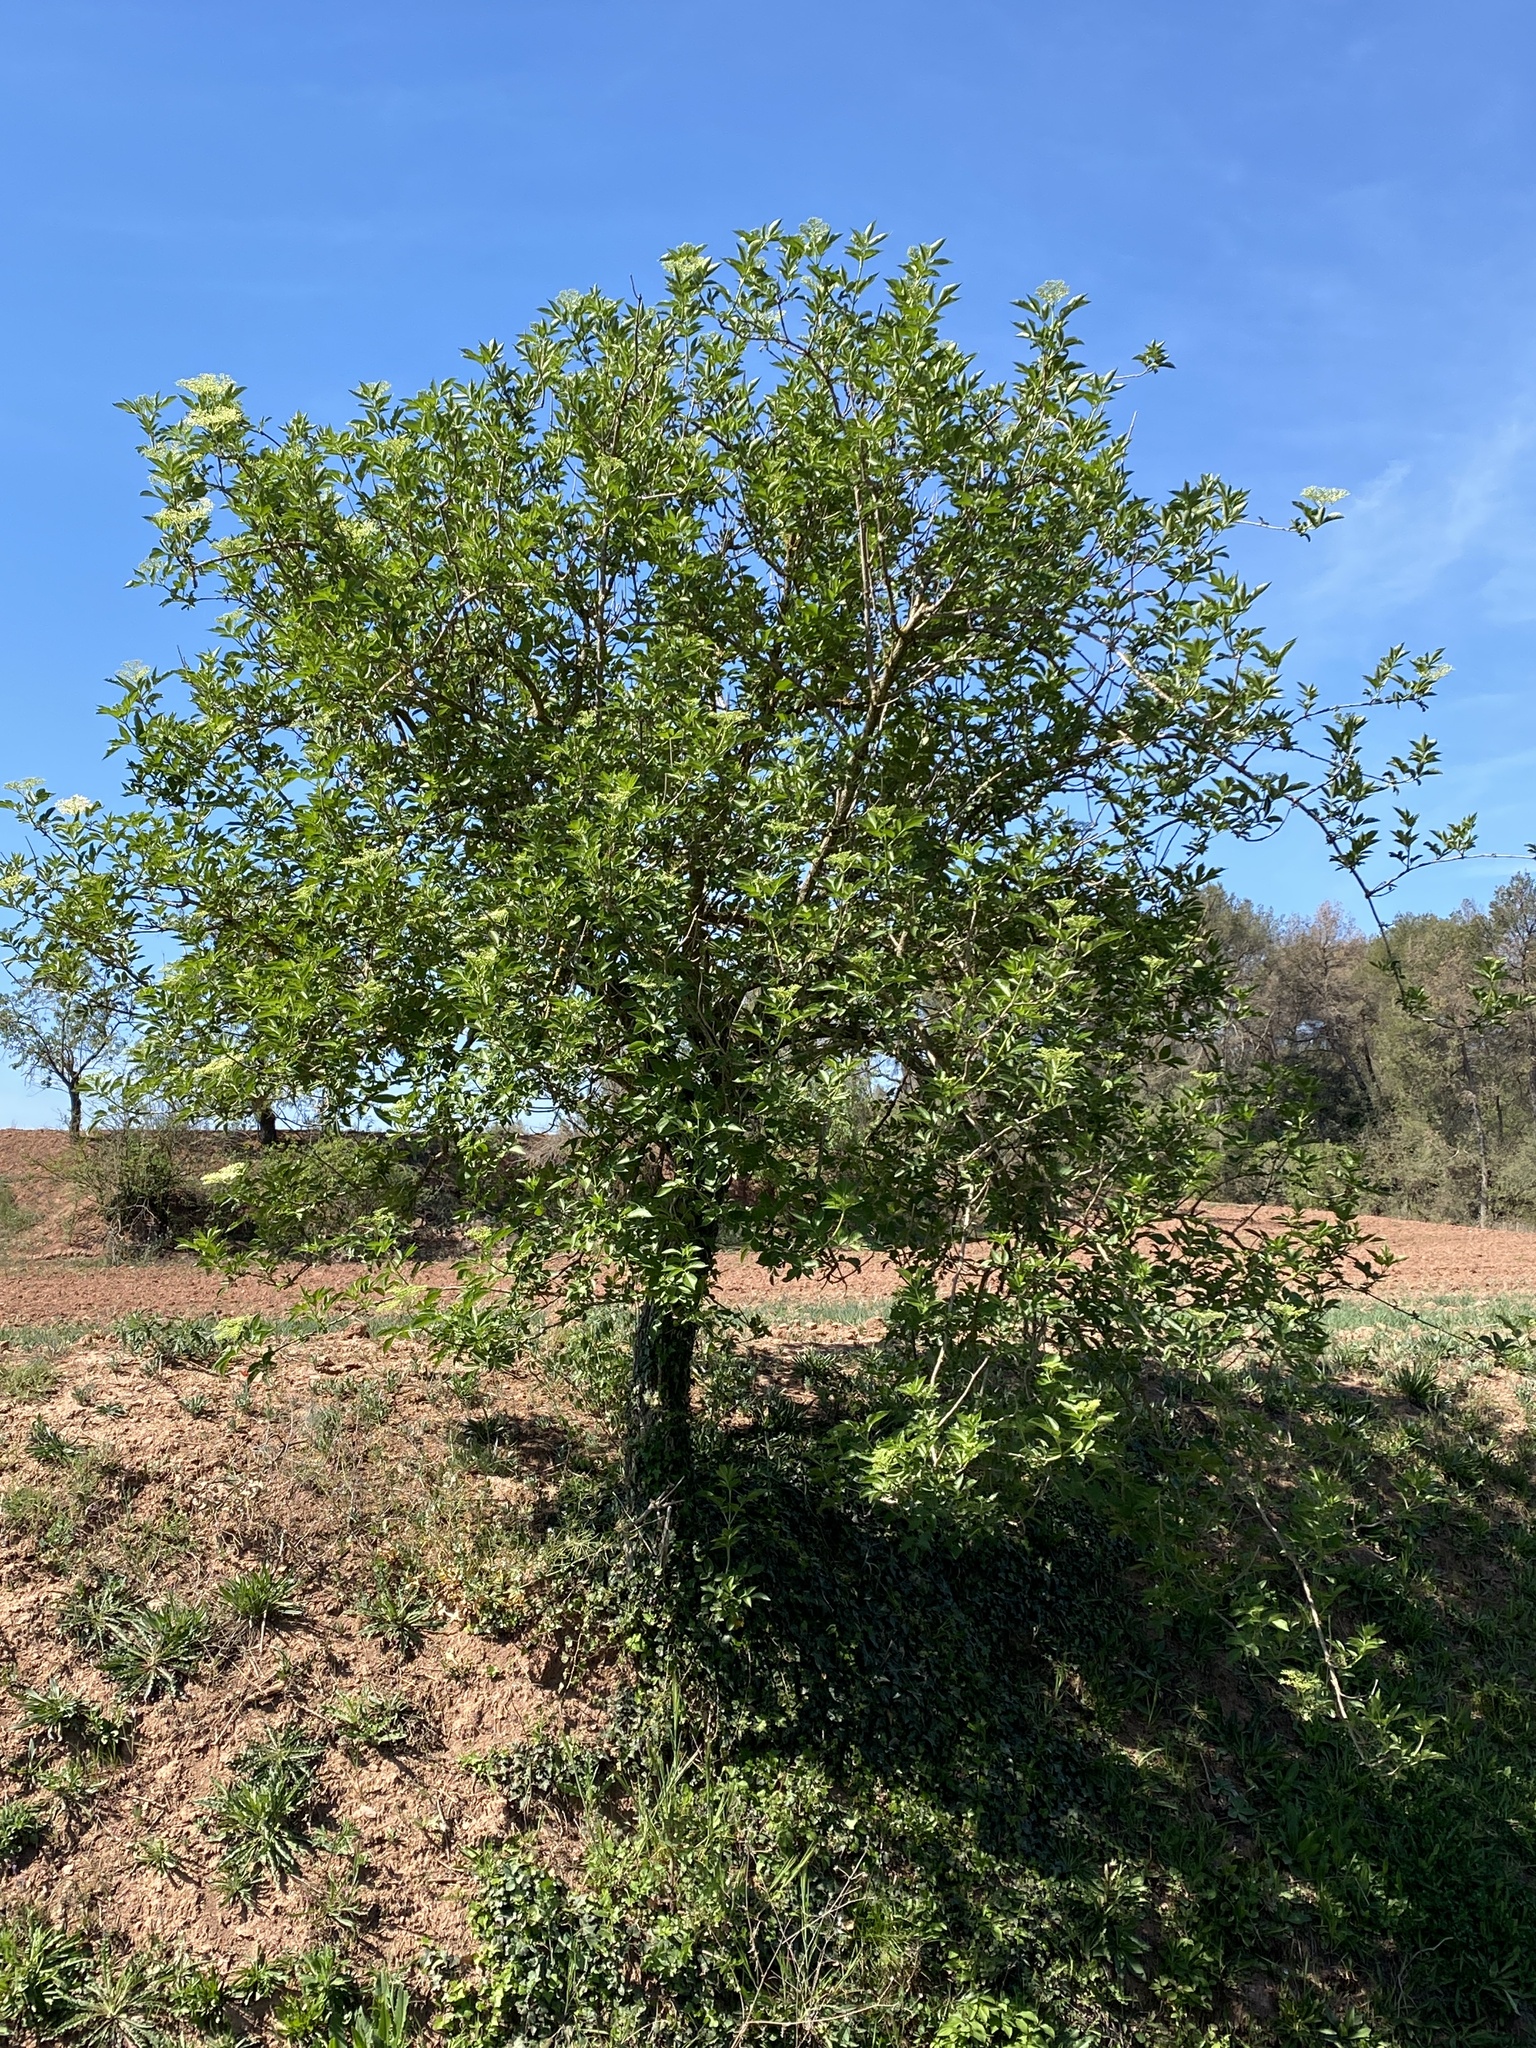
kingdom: Plantae
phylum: Tracheophyta
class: Magnoliopsida
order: Dipsacales
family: Viburnaceae
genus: Sambucus
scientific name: Sambucus nigra
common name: Elder
